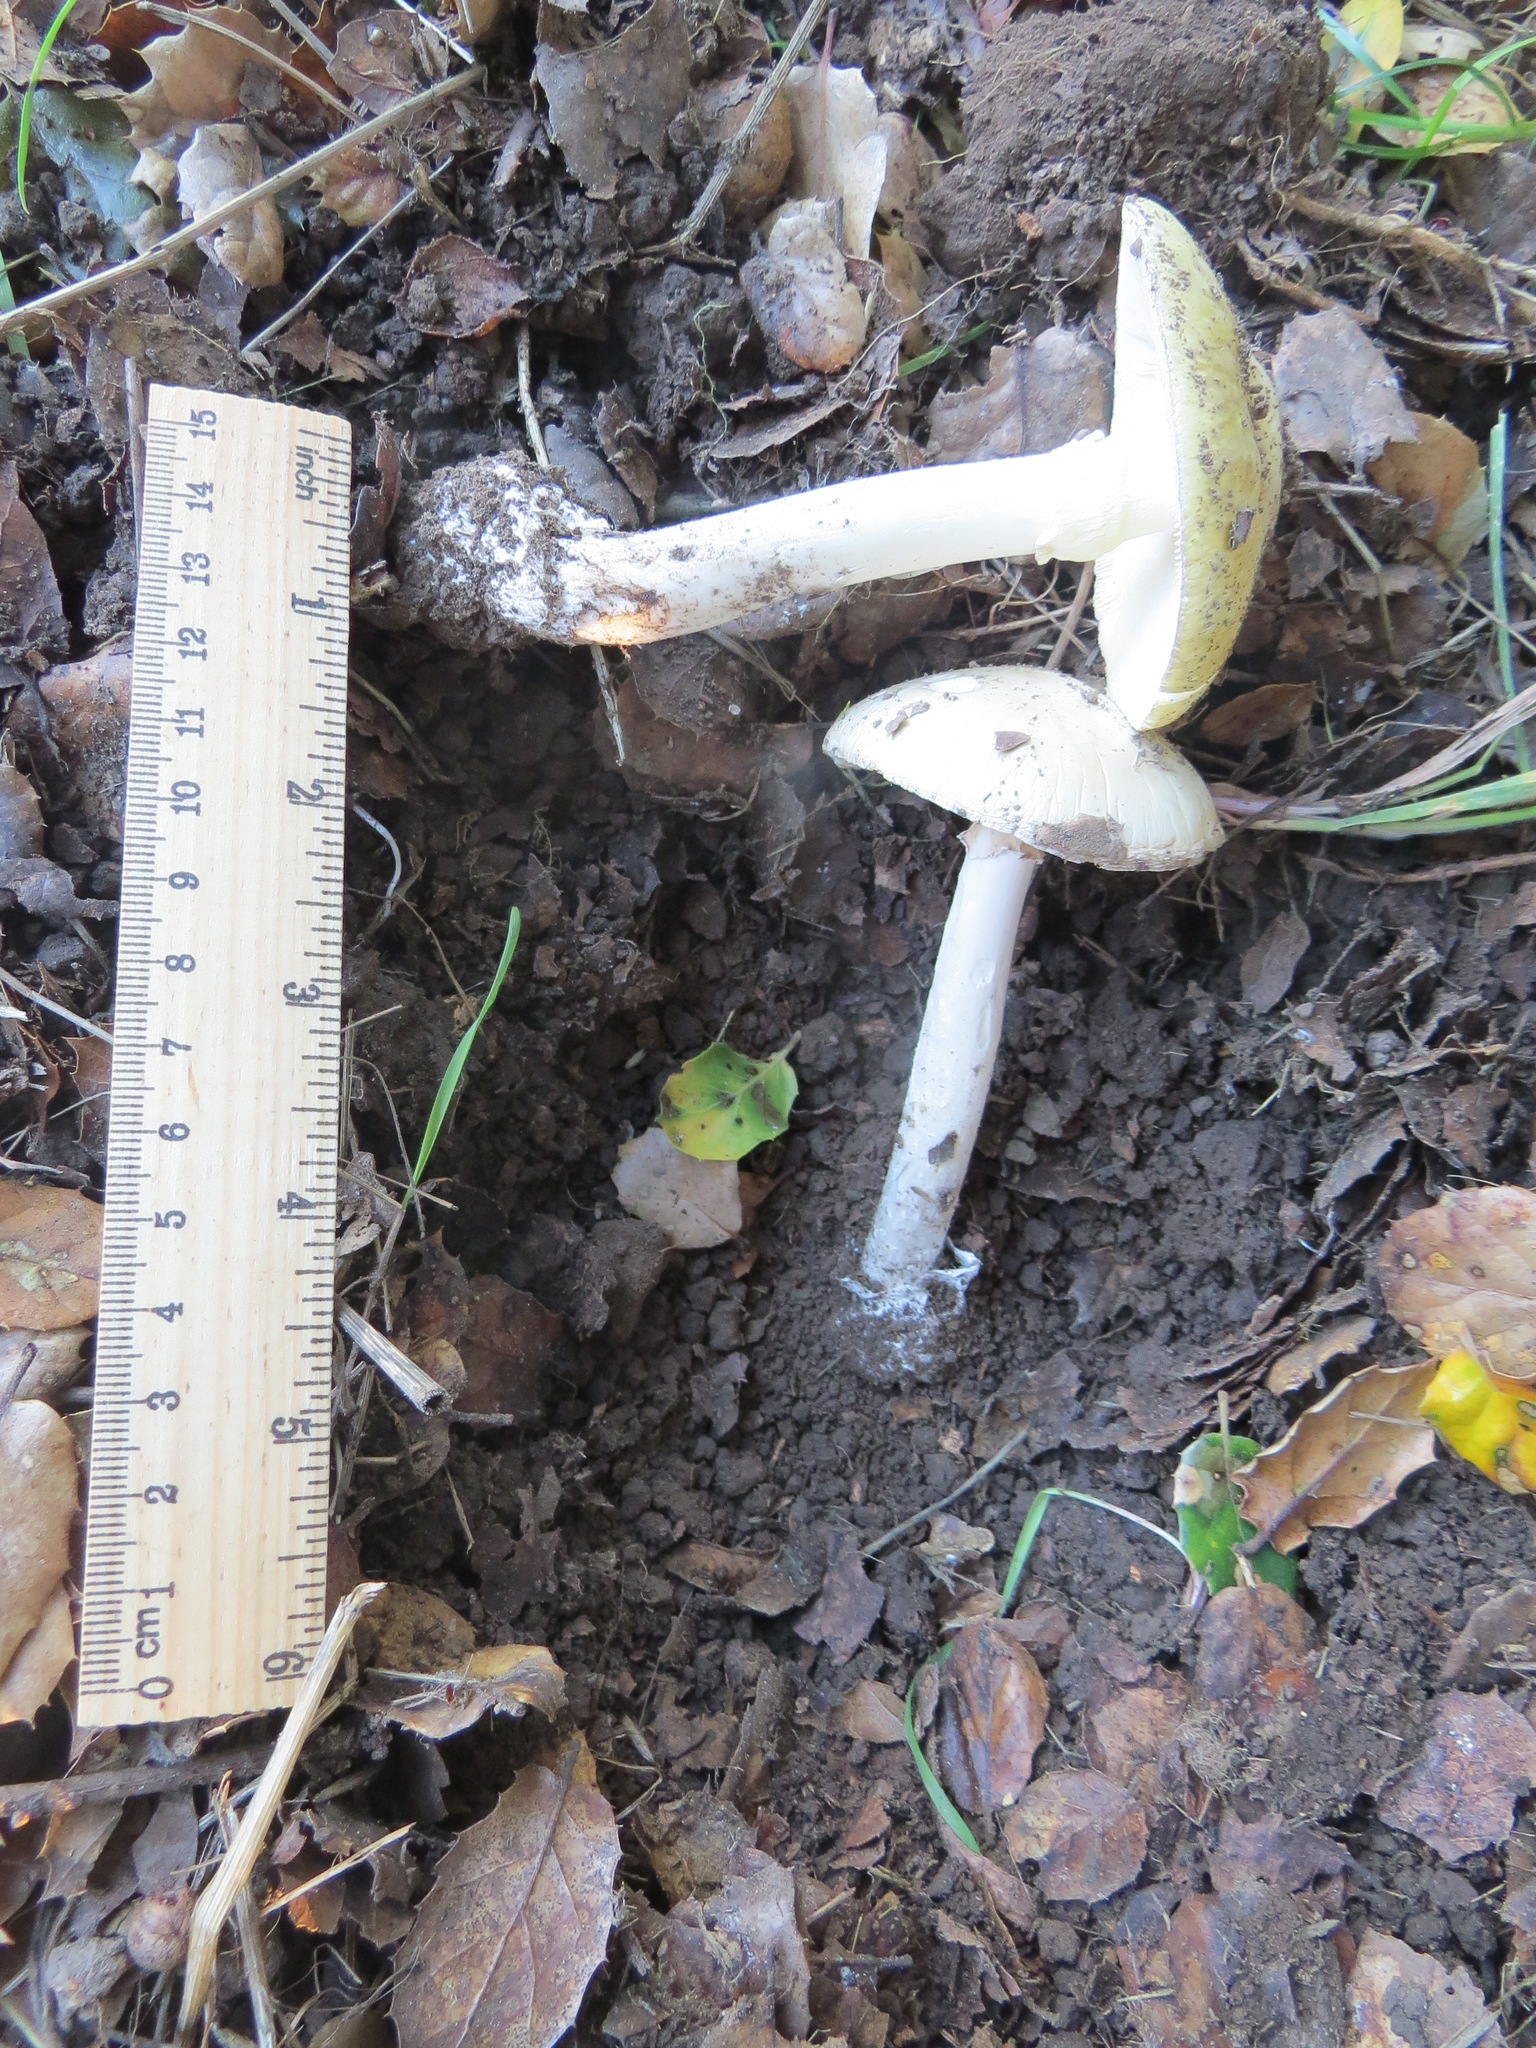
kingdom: Fungi
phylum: Basidiomycota
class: Agaricomycetes
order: Agaricales
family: Amanitaceae
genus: Amanita
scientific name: Amanita phalloides
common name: Death cap
